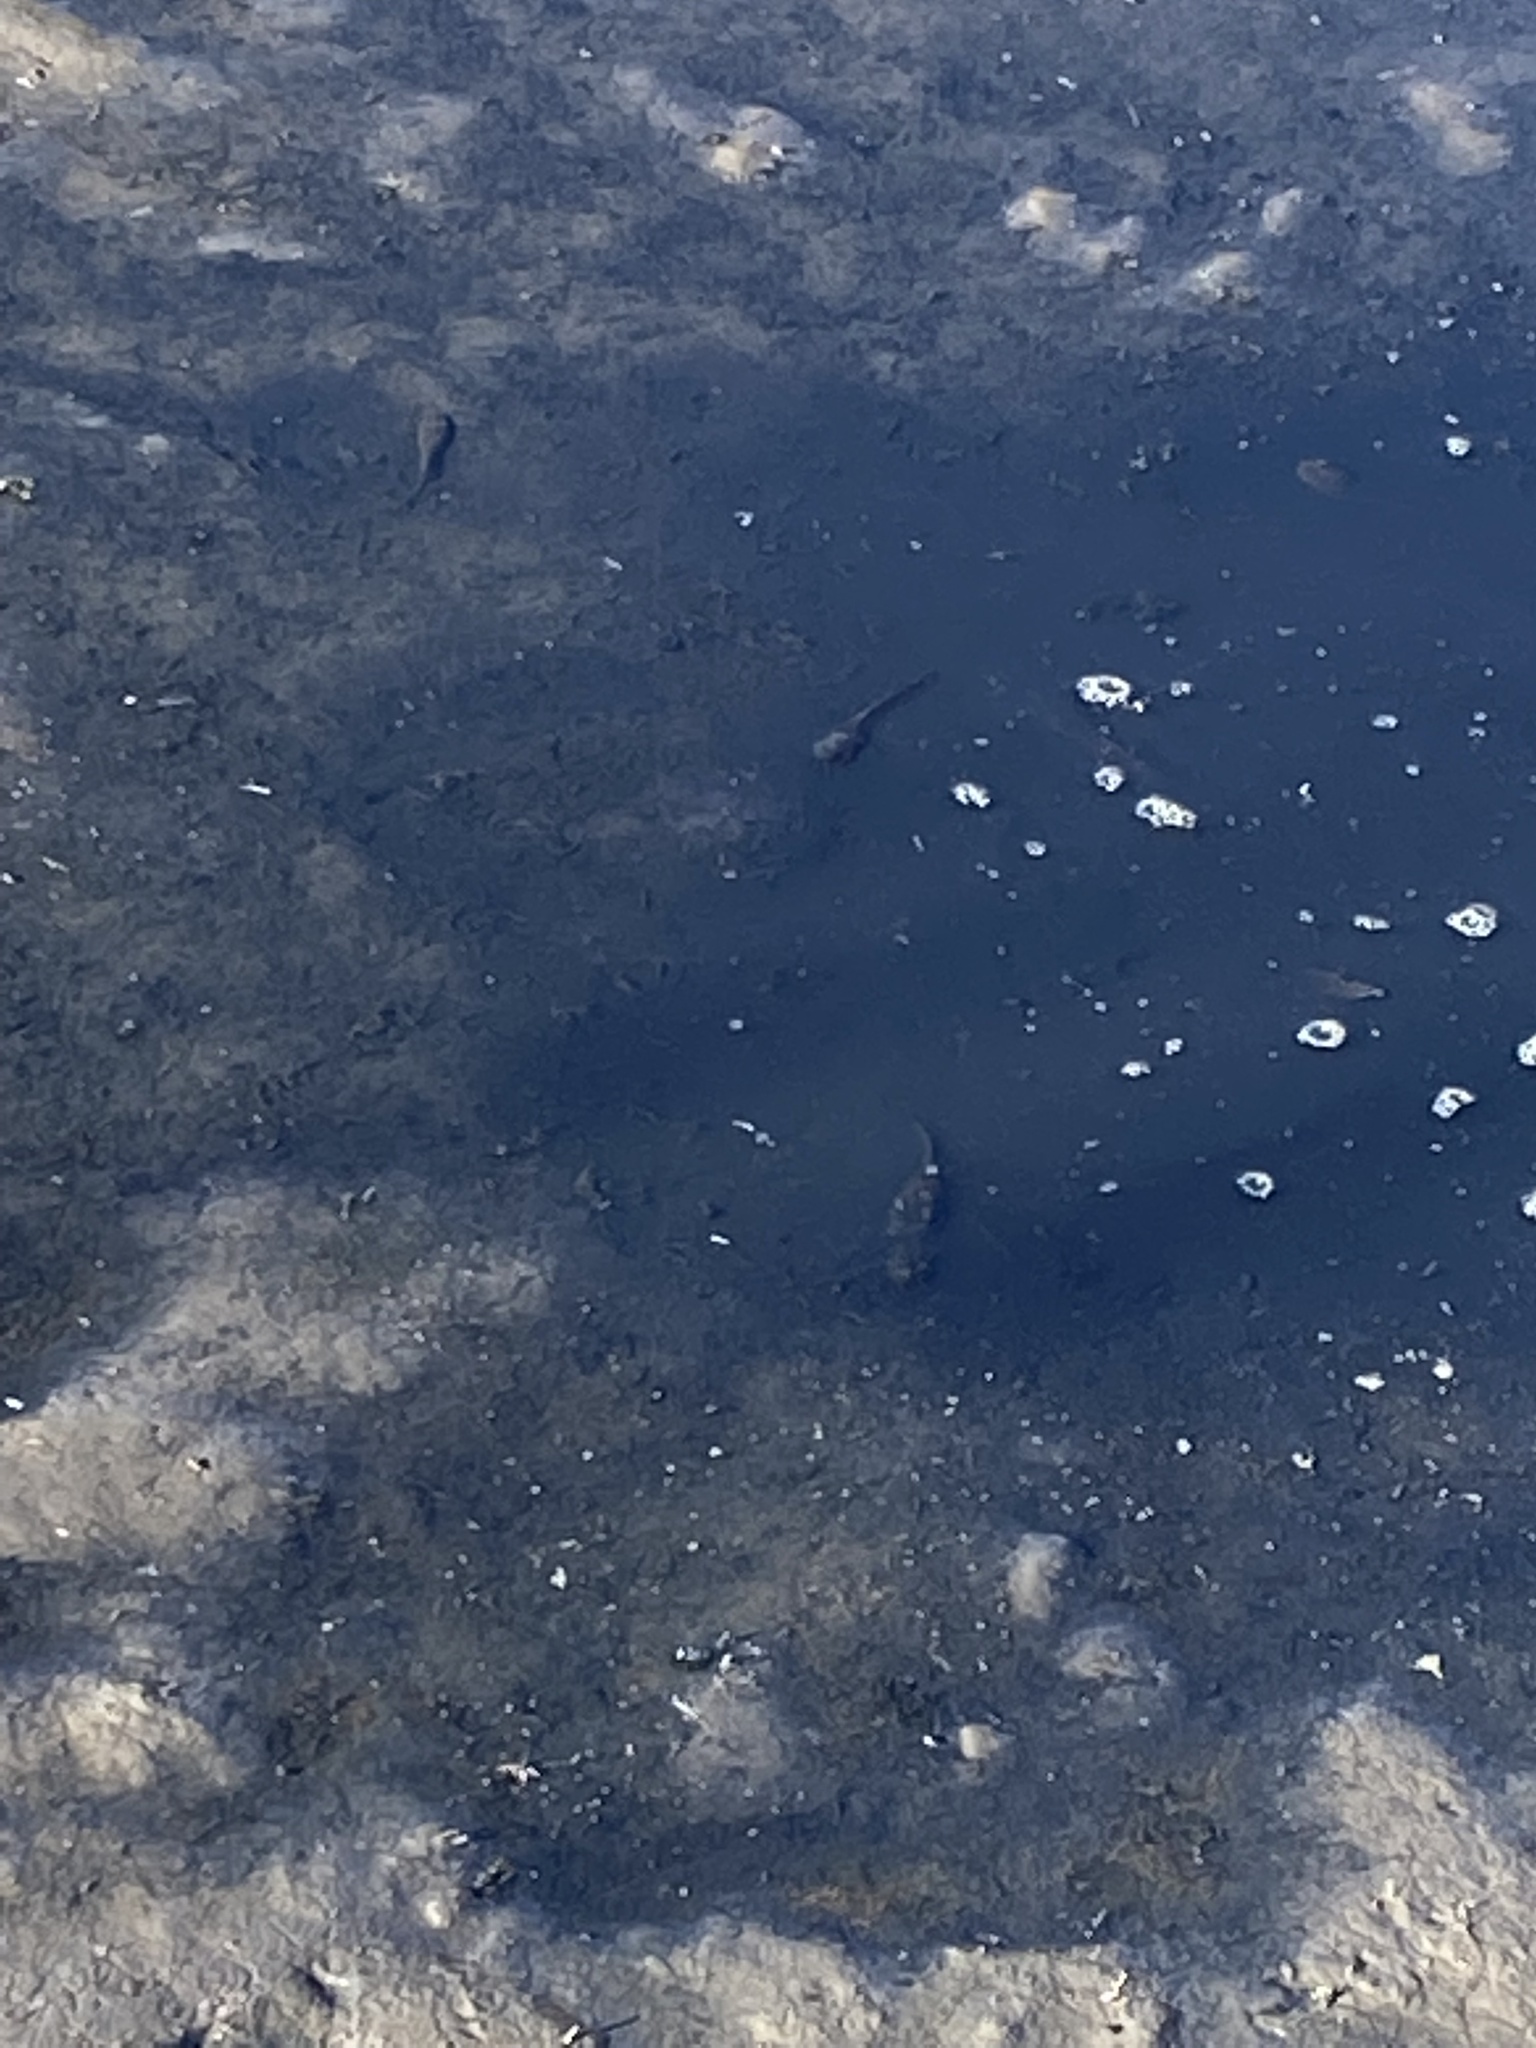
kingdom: Animalia
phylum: Chordata
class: Amphibia
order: Anura
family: Ranidae
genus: Lithobates
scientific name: Lithobates catesbeianus
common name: American bullfrog
